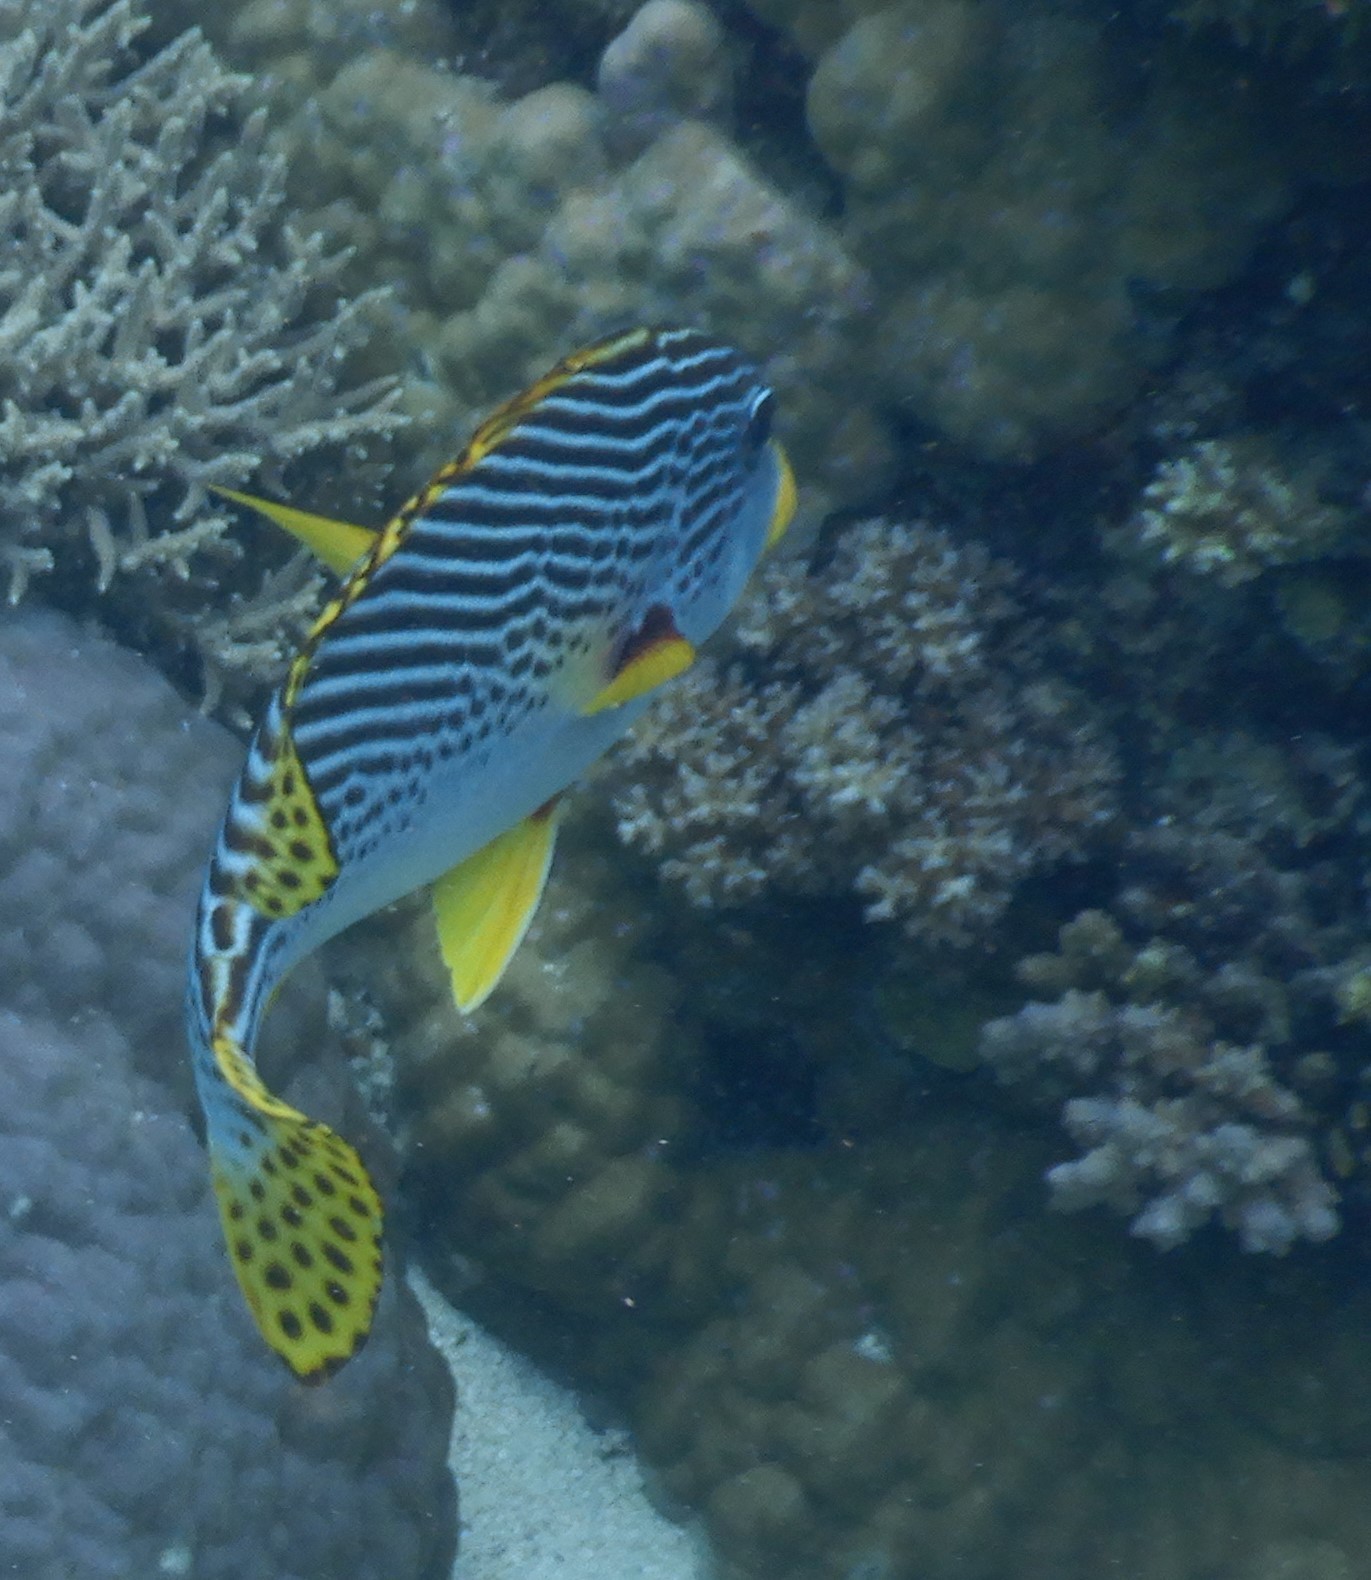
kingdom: Animalia
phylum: Chordata
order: Perciformes
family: Haemulidae
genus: Plectorhinchus
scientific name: Plectorhinchus lineatus
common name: Goldman's sweetlips
